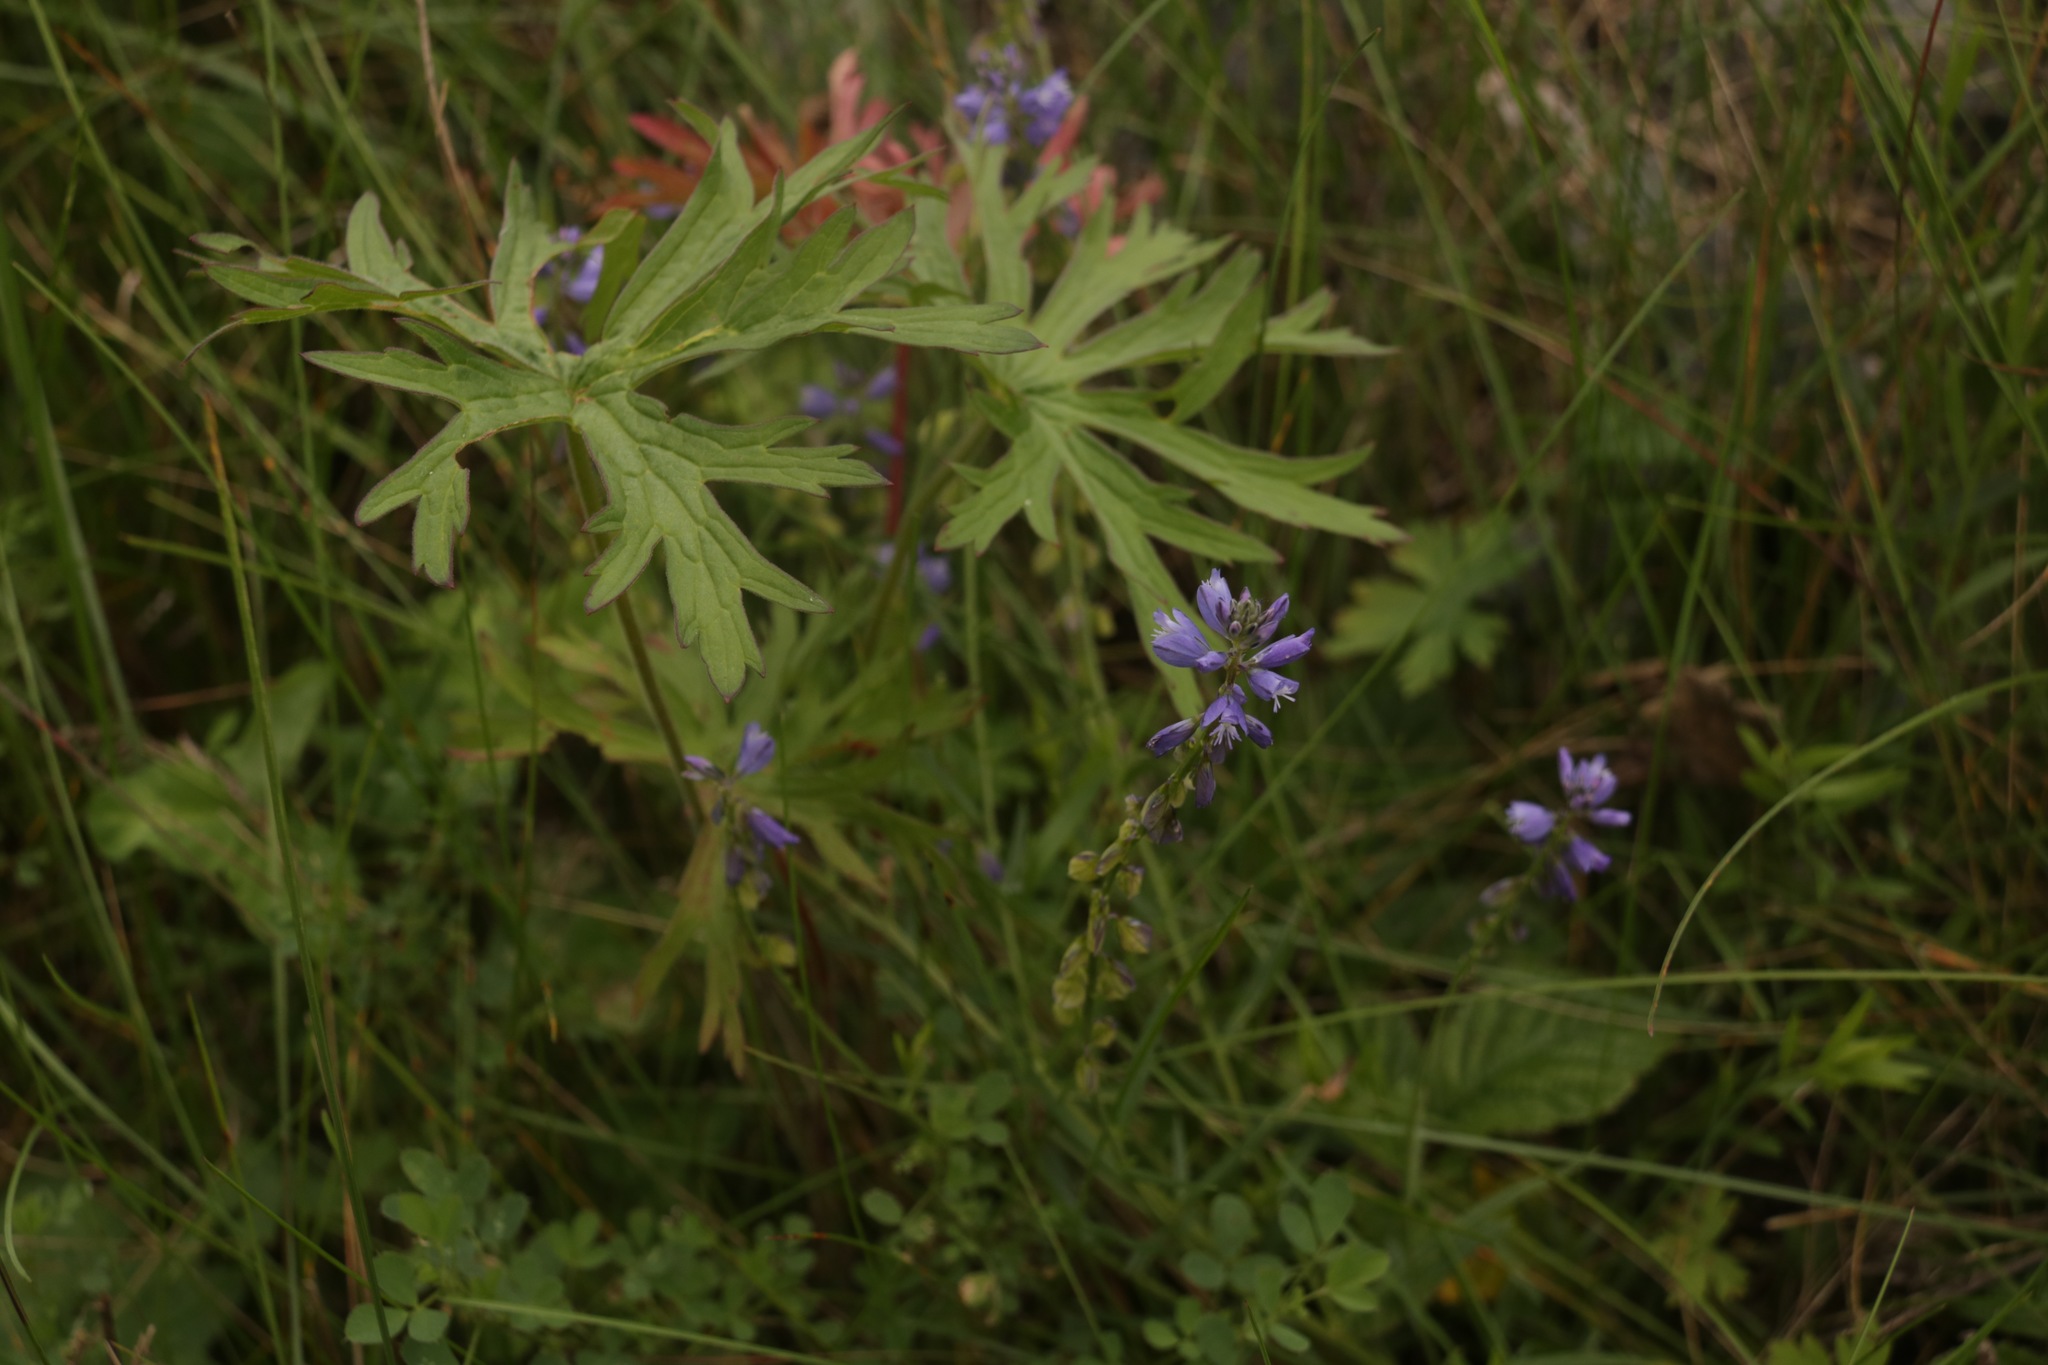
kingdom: Plantae
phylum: Tracheophyta
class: Magnoliopsida
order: Fabales
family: Polygalaceae
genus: Polygala
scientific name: Polygala comosa
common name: Tufted milkwort
